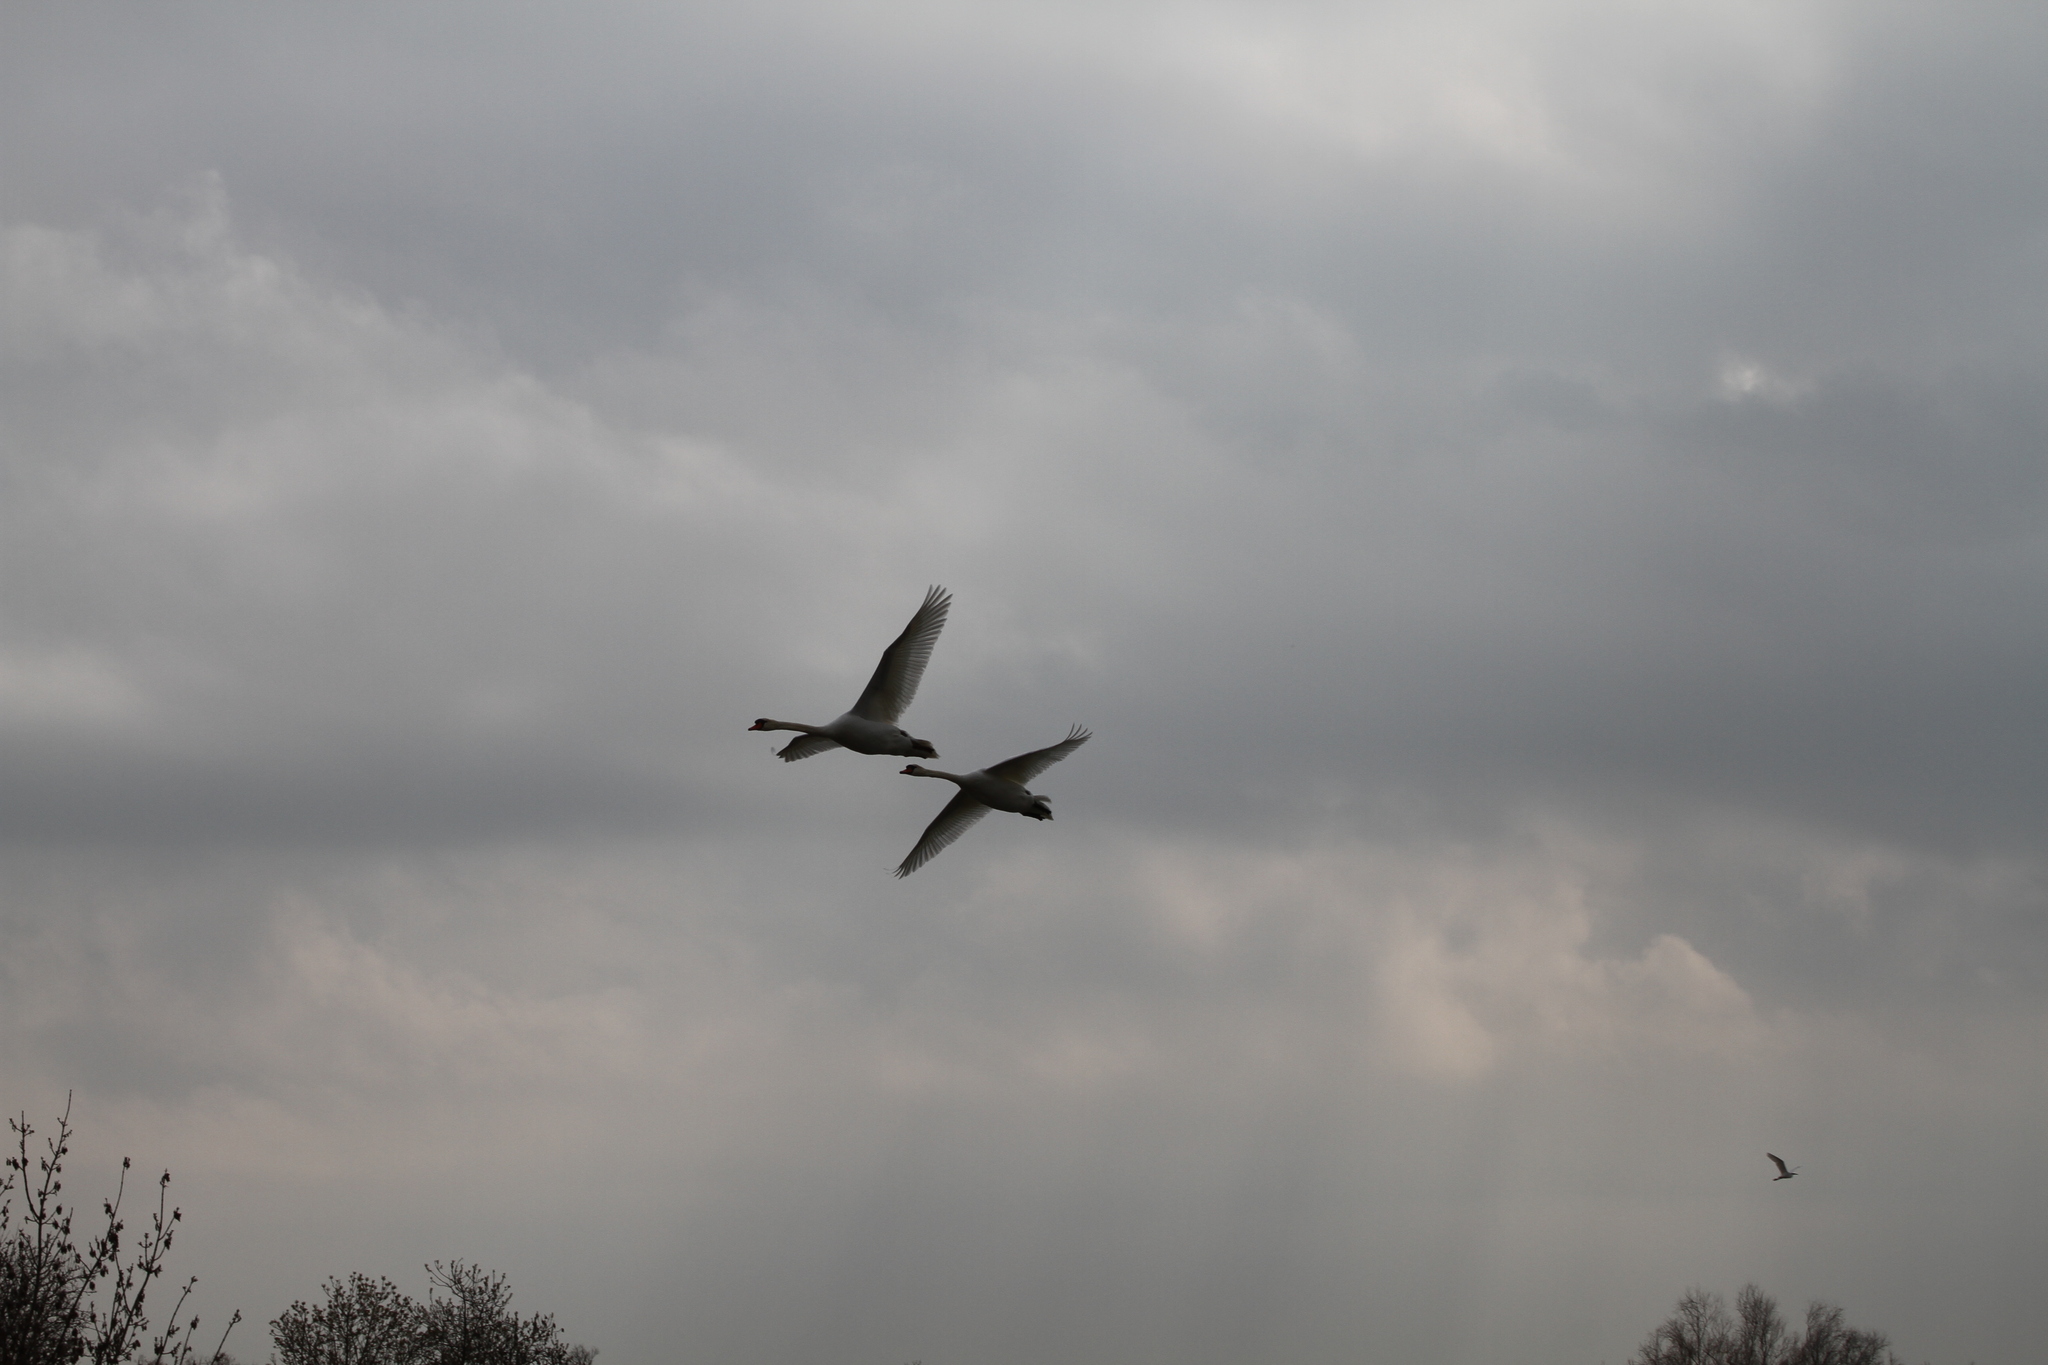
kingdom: Animalia
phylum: Chordata
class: Aves
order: Anseriformes
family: Anatidae
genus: Cygnus
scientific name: Cygnus olor
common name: Mute swan
